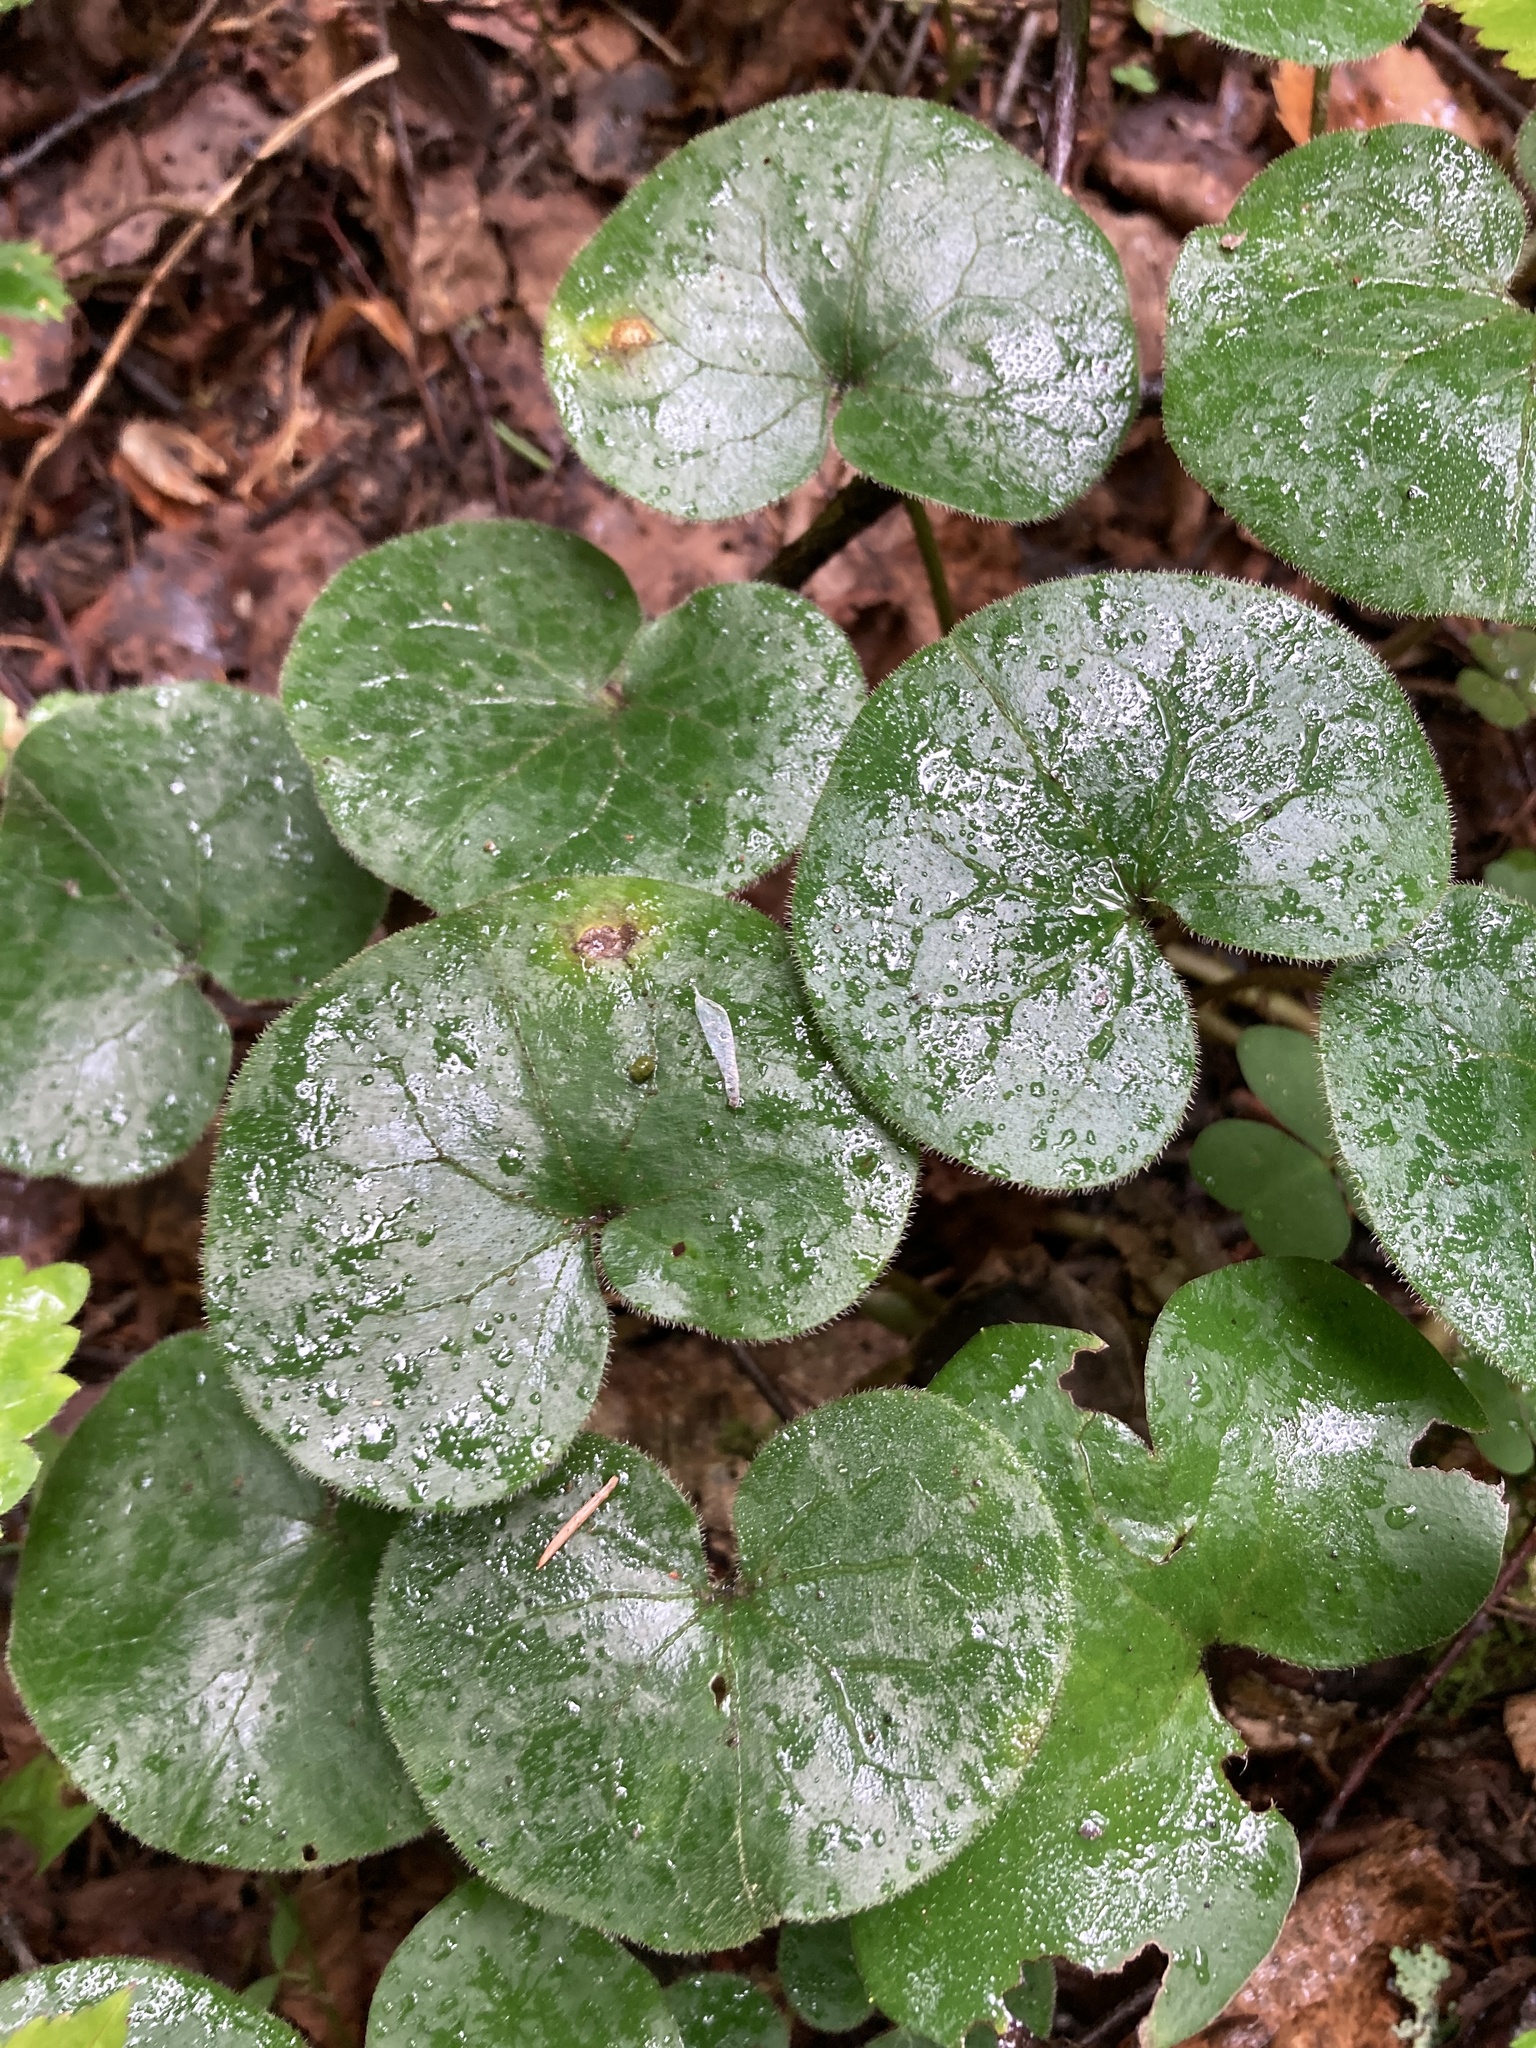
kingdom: Plantae
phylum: Tracheophyta
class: Magnoliopsida
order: Piperales
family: Aristolochiaceae
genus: Asarum
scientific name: Asarum europaeum
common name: Asarabacca
